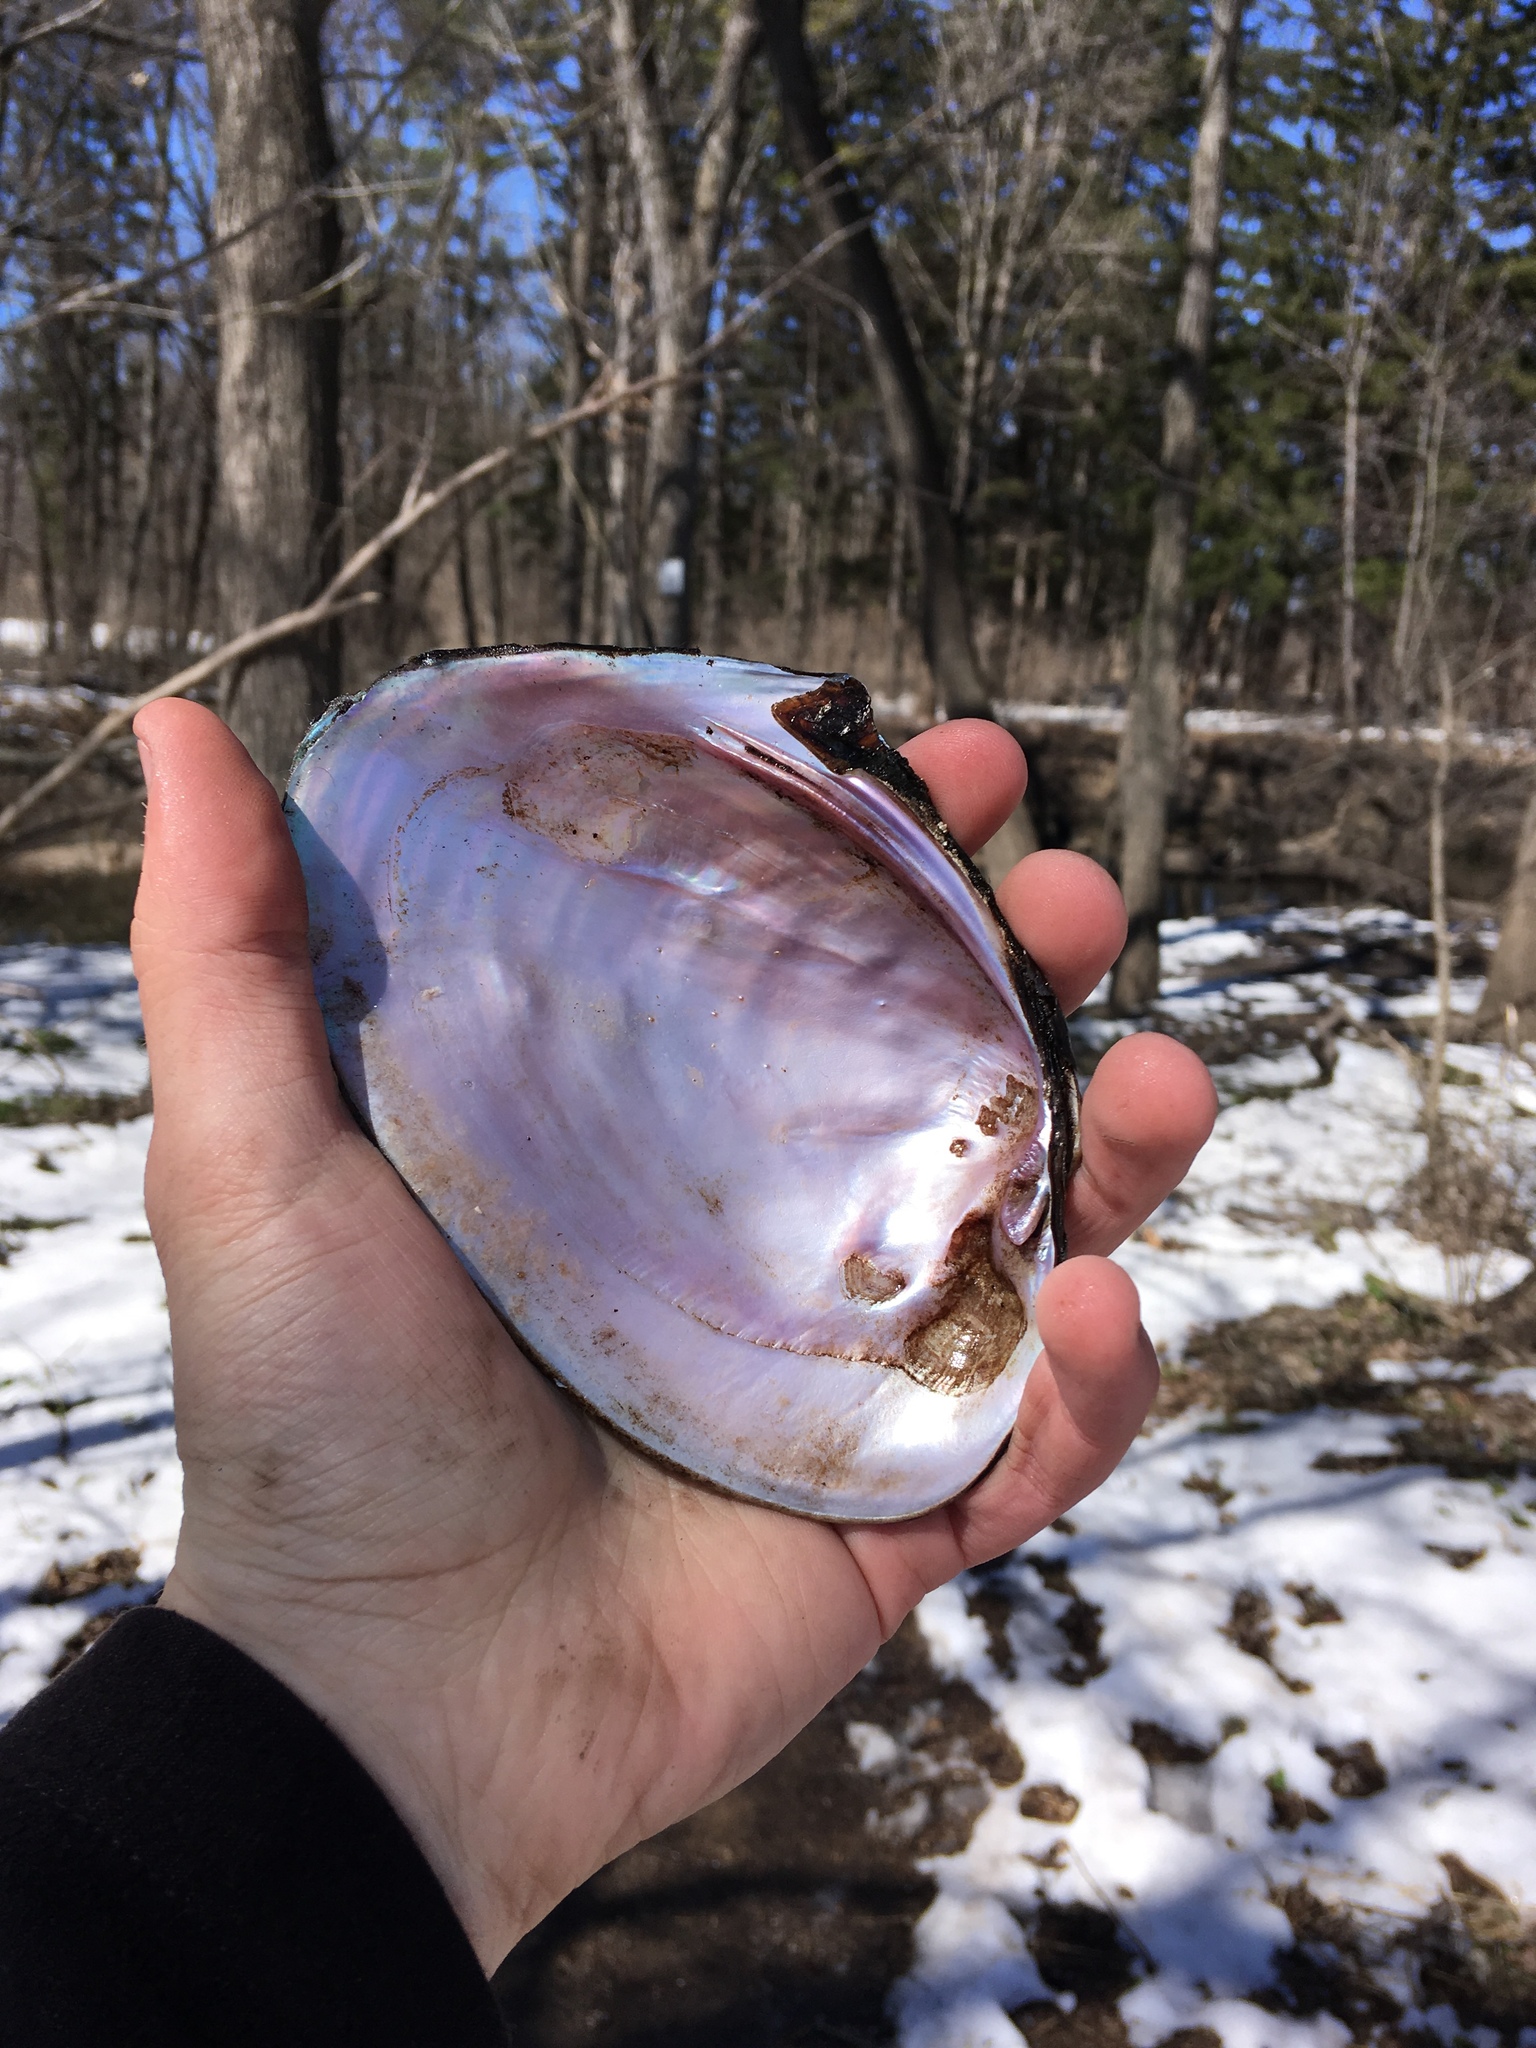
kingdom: Animalia
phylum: Mollusca
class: Bivalvia
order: Unionida
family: Unionidae
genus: Potamilus
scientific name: Potamilus alatus
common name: Pink heelsplitter
